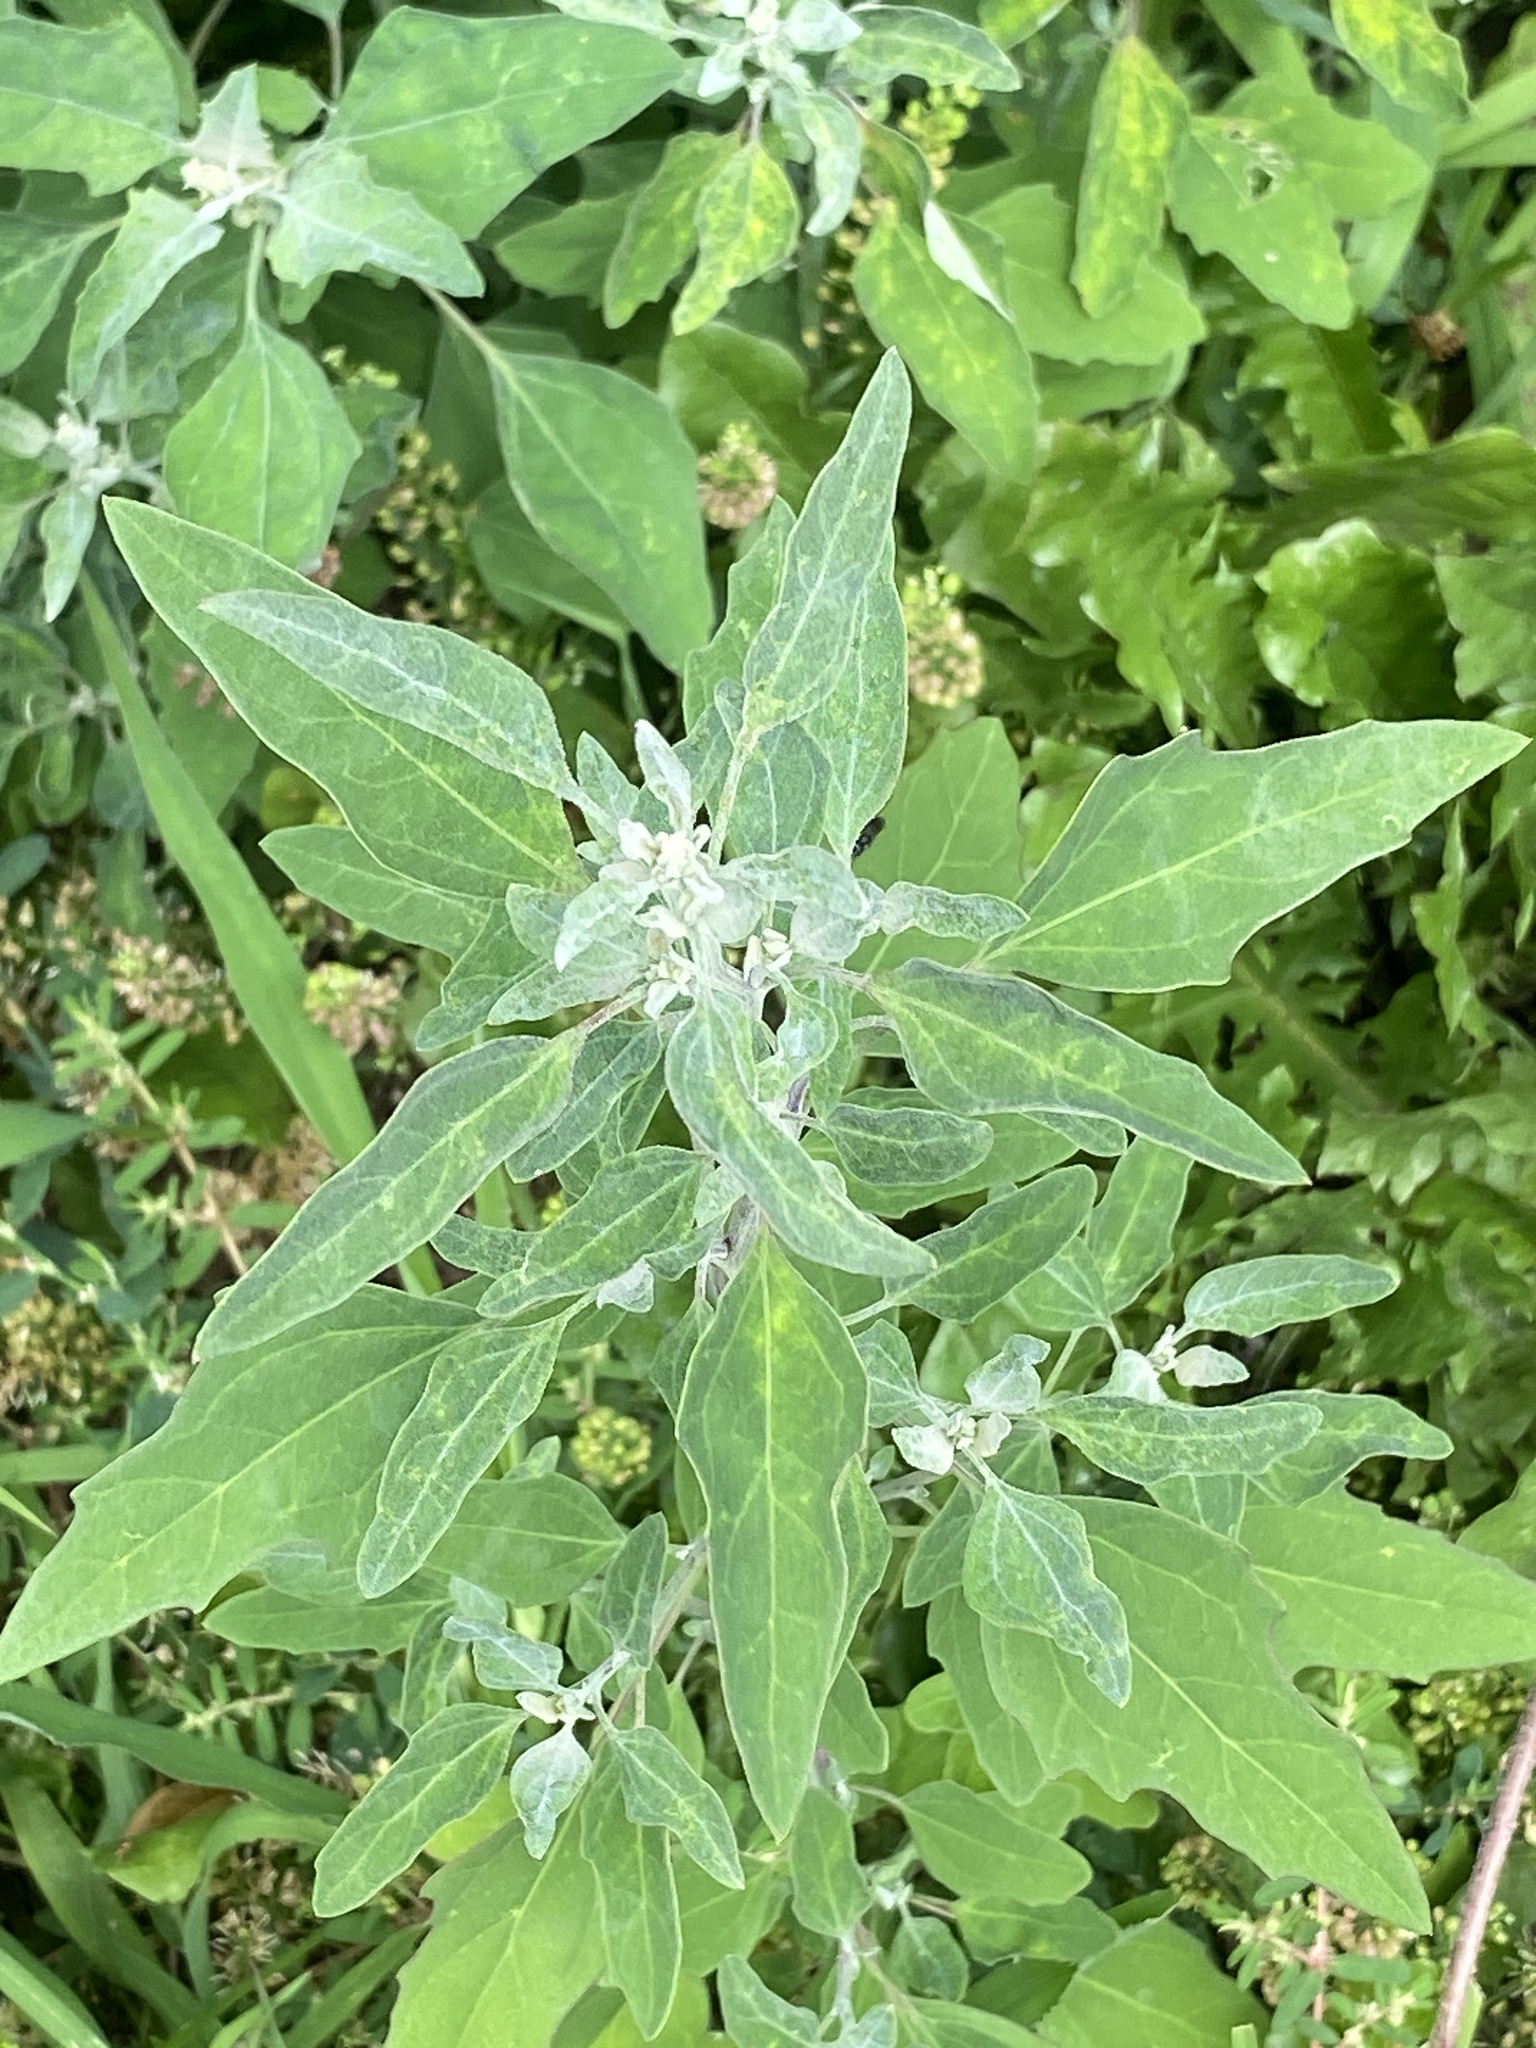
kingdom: Plantae
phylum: Tracheophyta
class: Magnoliopsida
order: Caryophyllales
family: Amaranthaceae
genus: Chenopodium
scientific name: Chenopodium album
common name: Fat-hen
